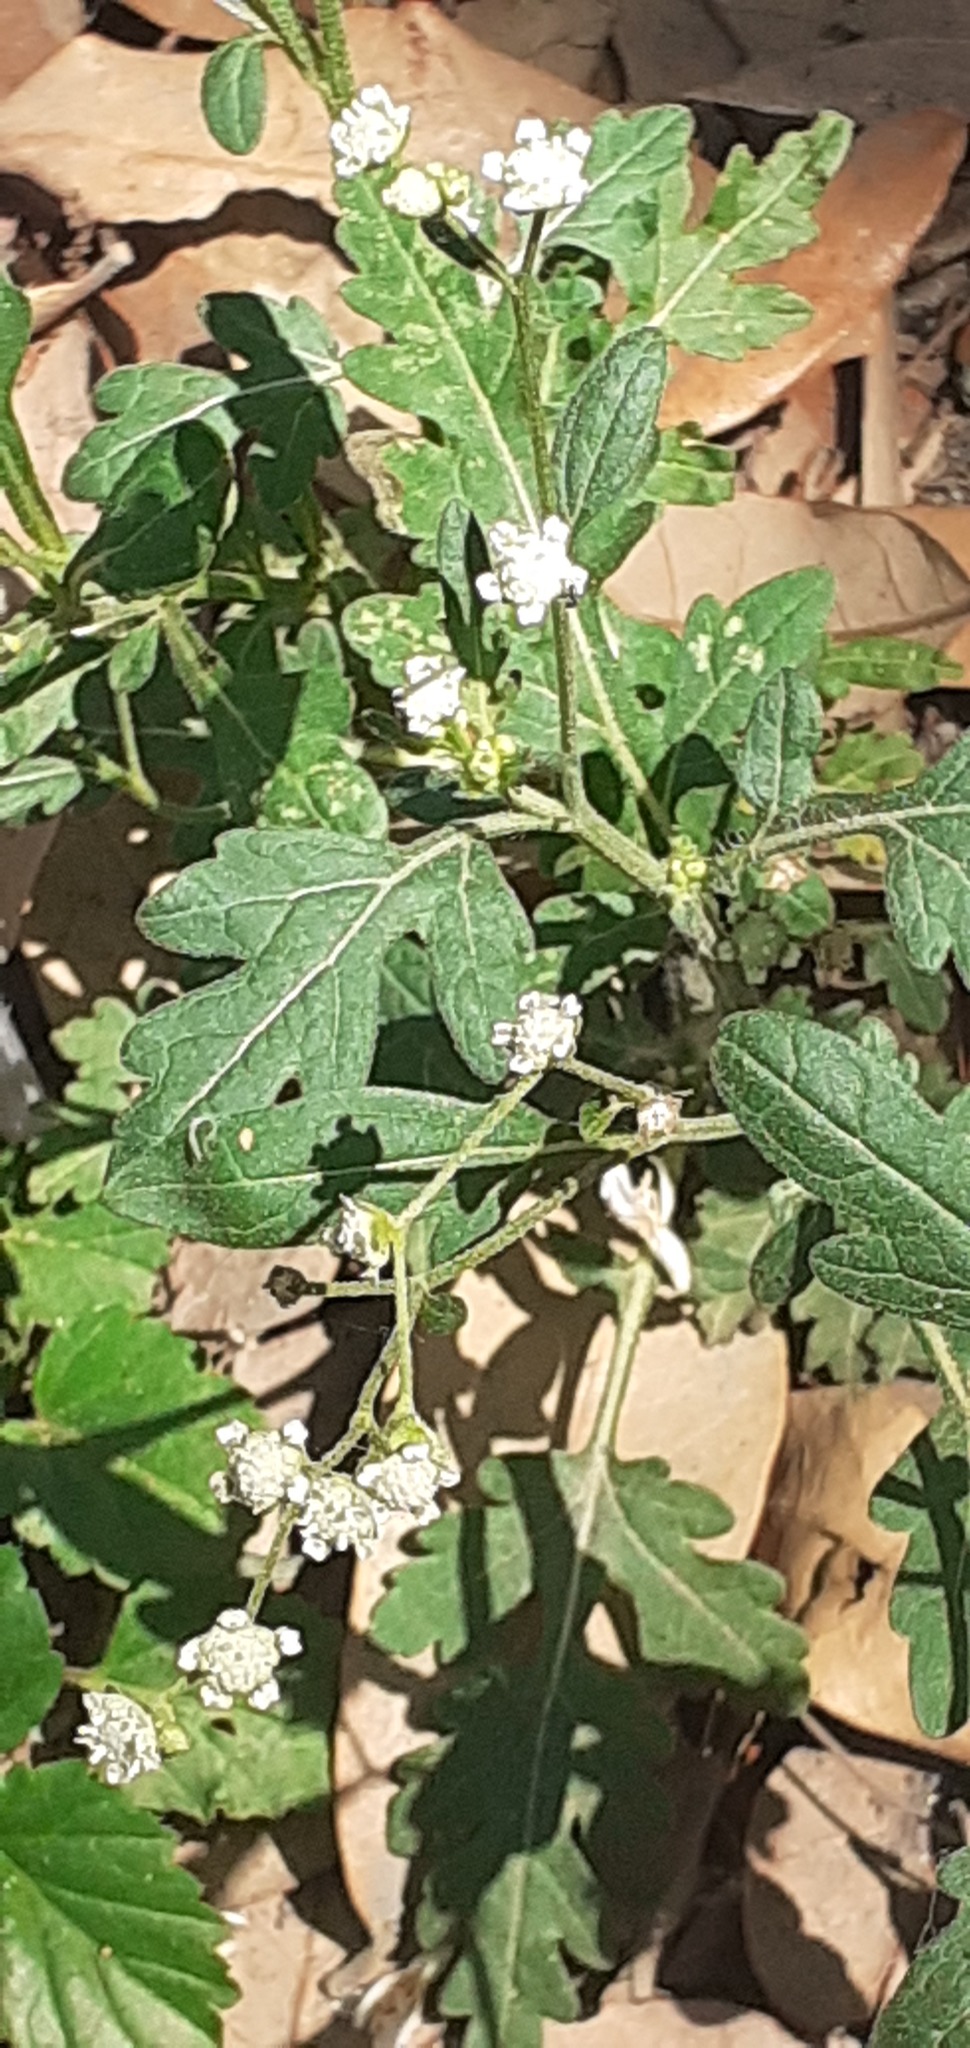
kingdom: Plantae
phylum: Tracheophyta
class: Magnoliopsida
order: Asterales
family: Asteraceae
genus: Parthenium
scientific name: Parthenium hysterophorus
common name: Santa maria feverfew
